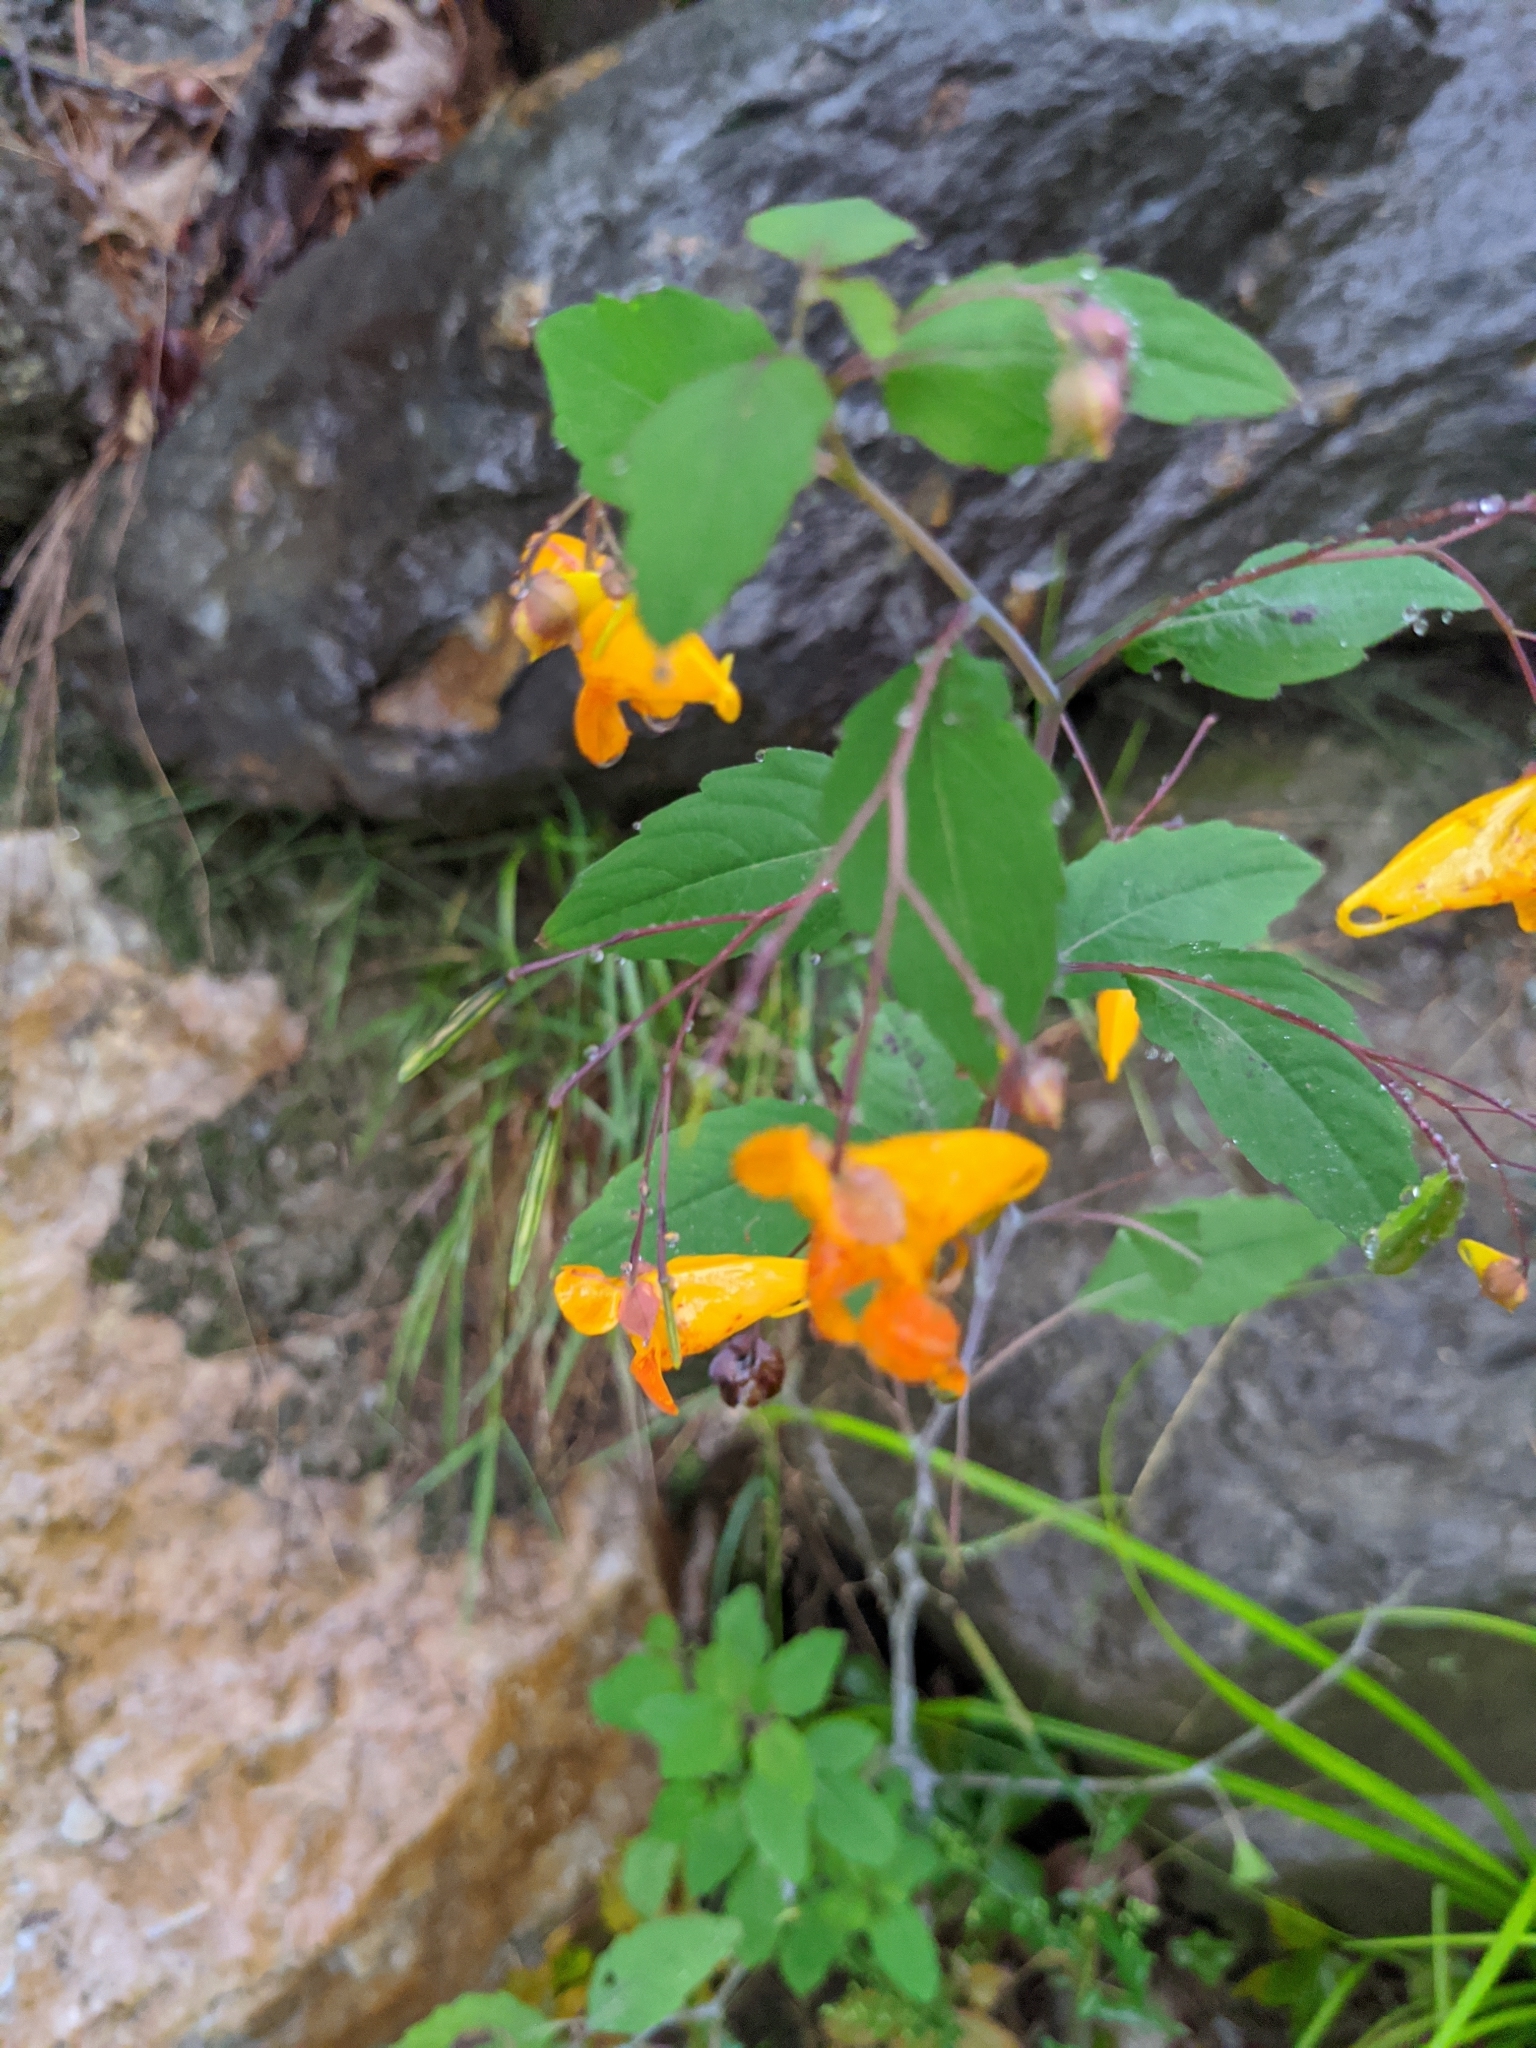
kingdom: Plantae
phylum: Tracheophyta
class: Magnoliopsida
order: Ericales
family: Balsaminaceae
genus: Impatiens
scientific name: Impatiens capensis
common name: Orange balsam
